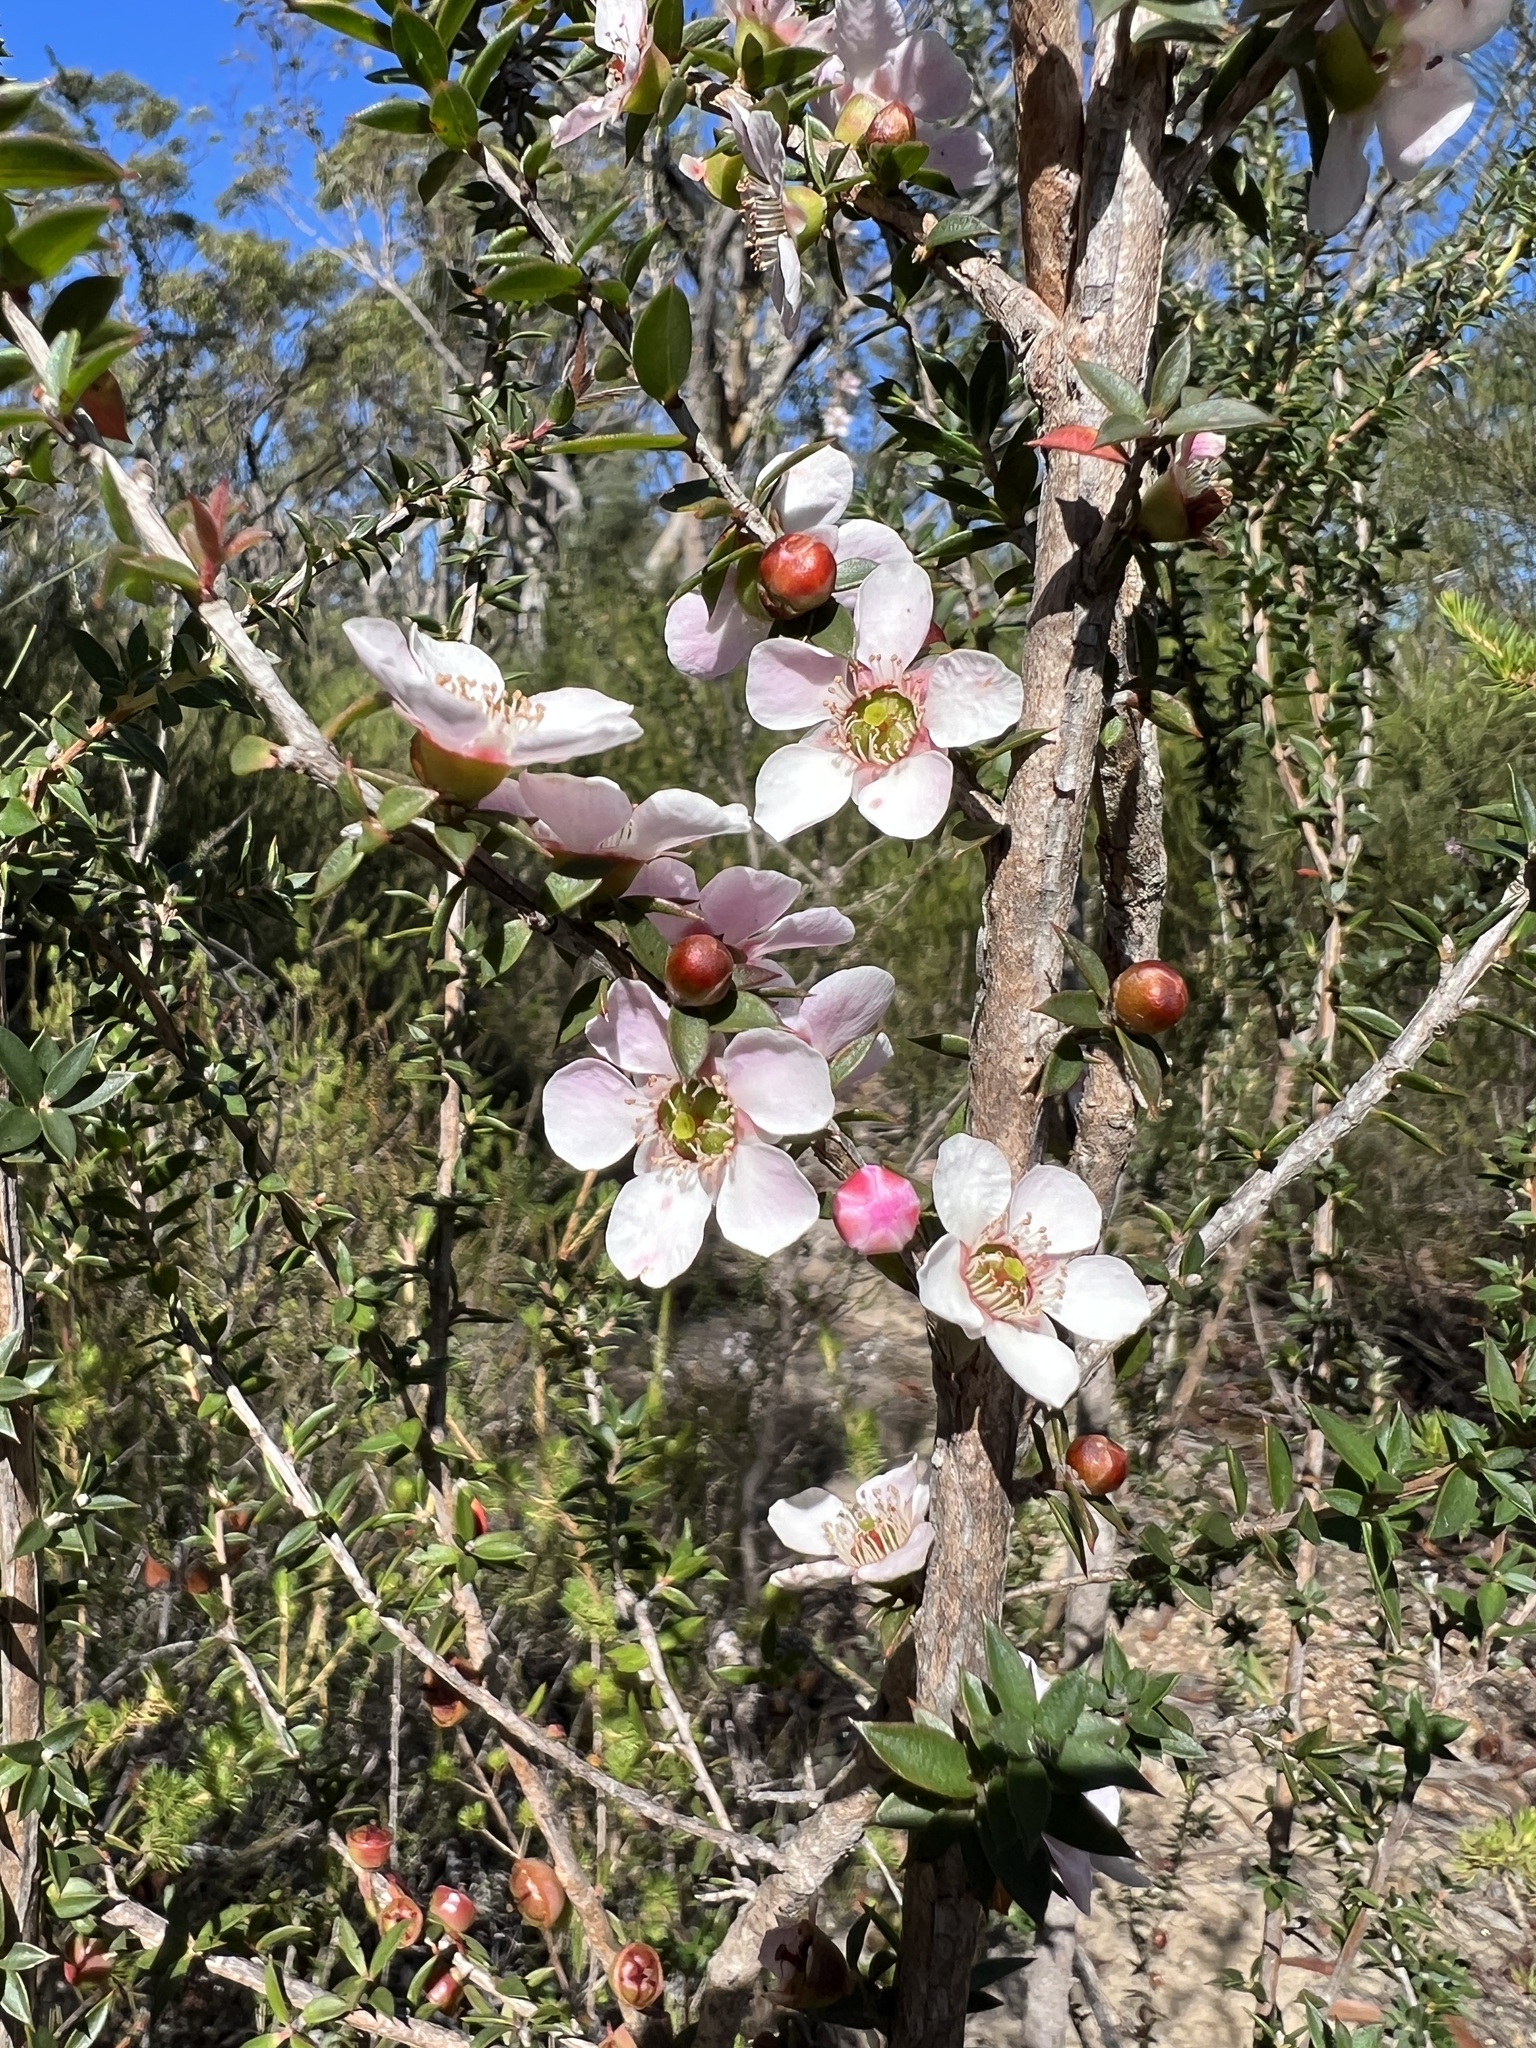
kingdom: Plantae
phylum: Tracheophyta
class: Magnoliopsida
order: Myrtales
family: Myrtaceae
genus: Leptospermum
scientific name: Leptospermum squarrosum
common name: Peach-blossom teatree
